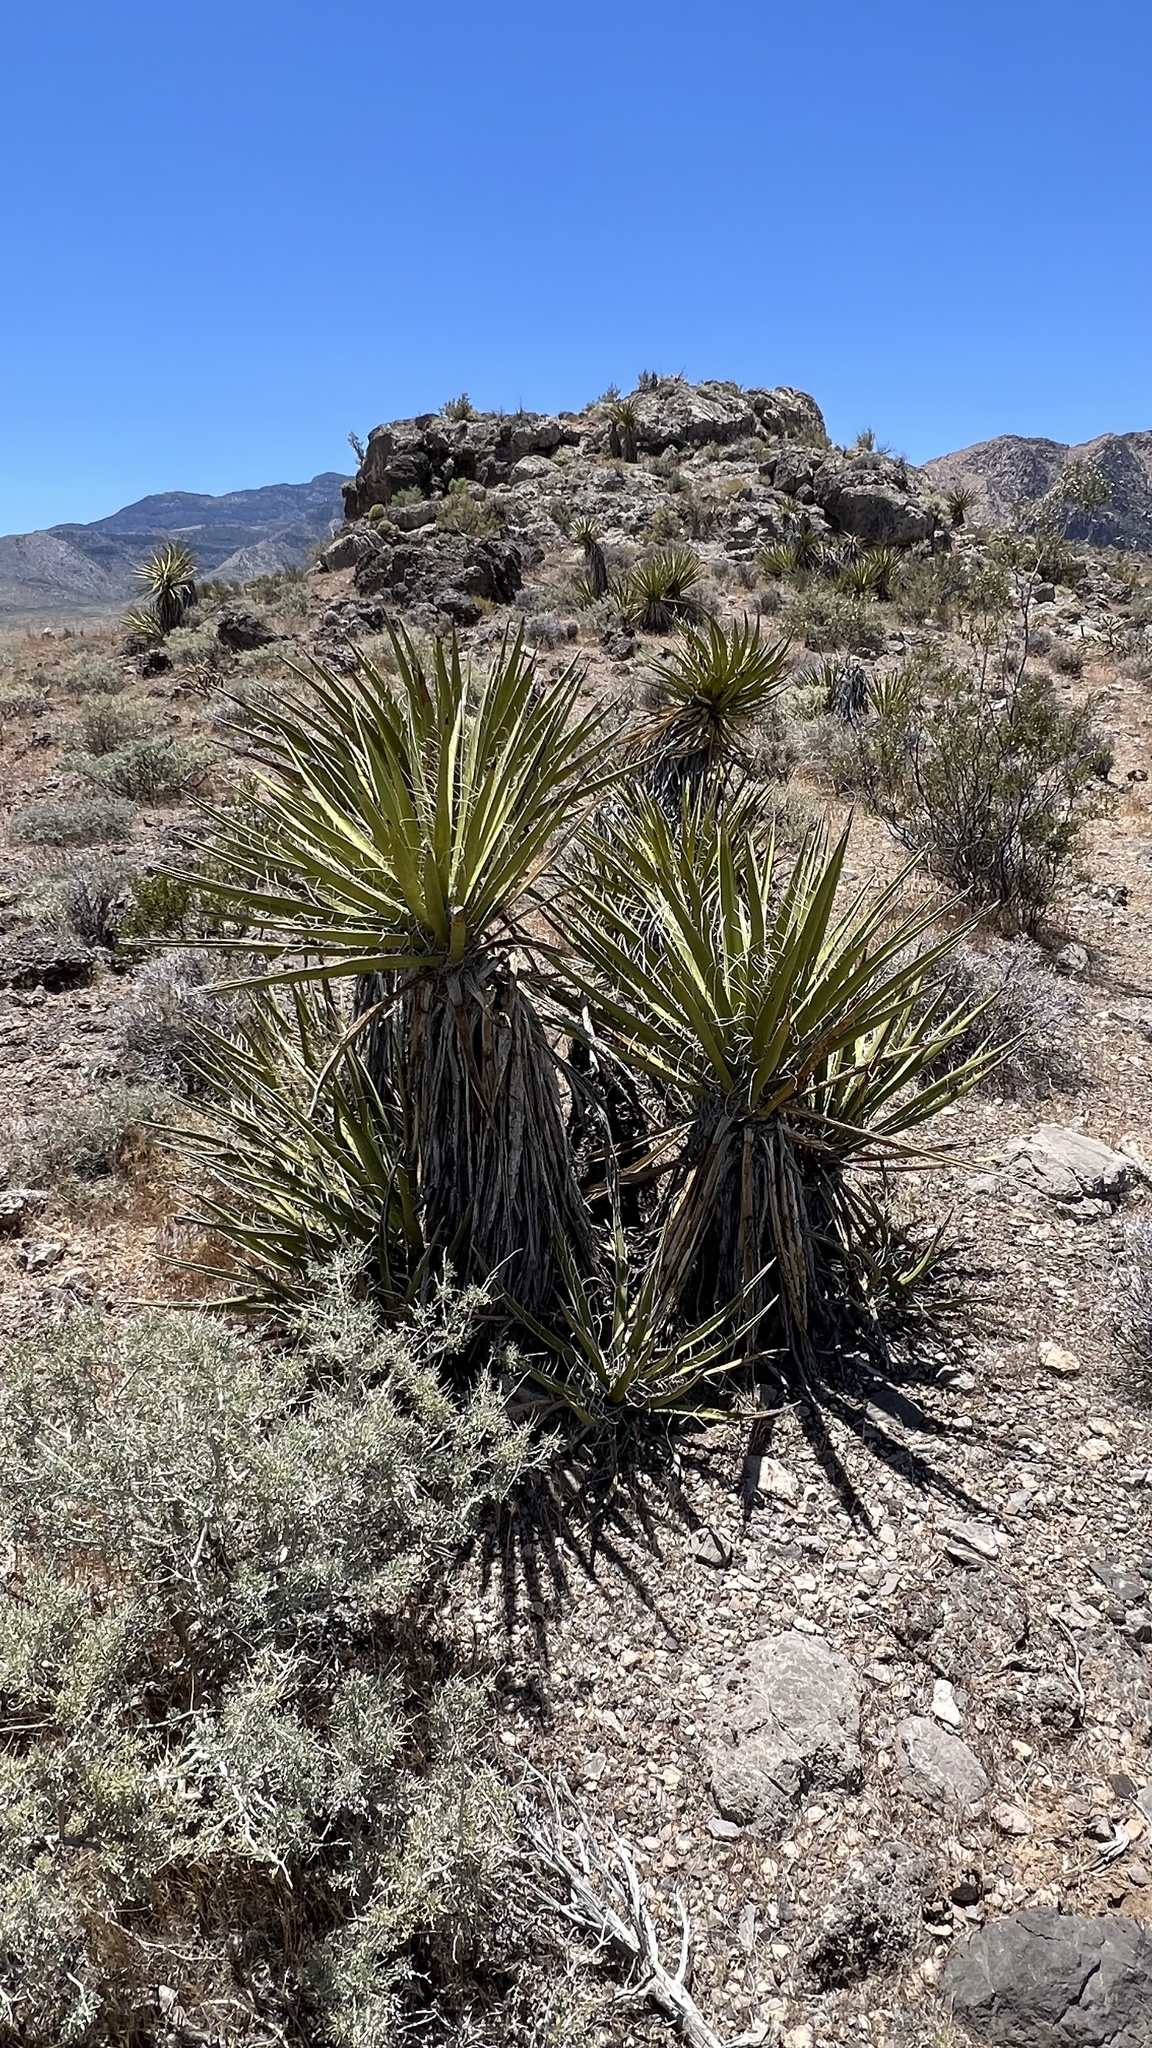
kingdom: Plantae
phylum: Tracheophyta
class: Liliopsida
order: Asparagales
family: Asparagaceae
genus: Yucca
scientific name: Yucca schidigera
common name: Mojave yucca
